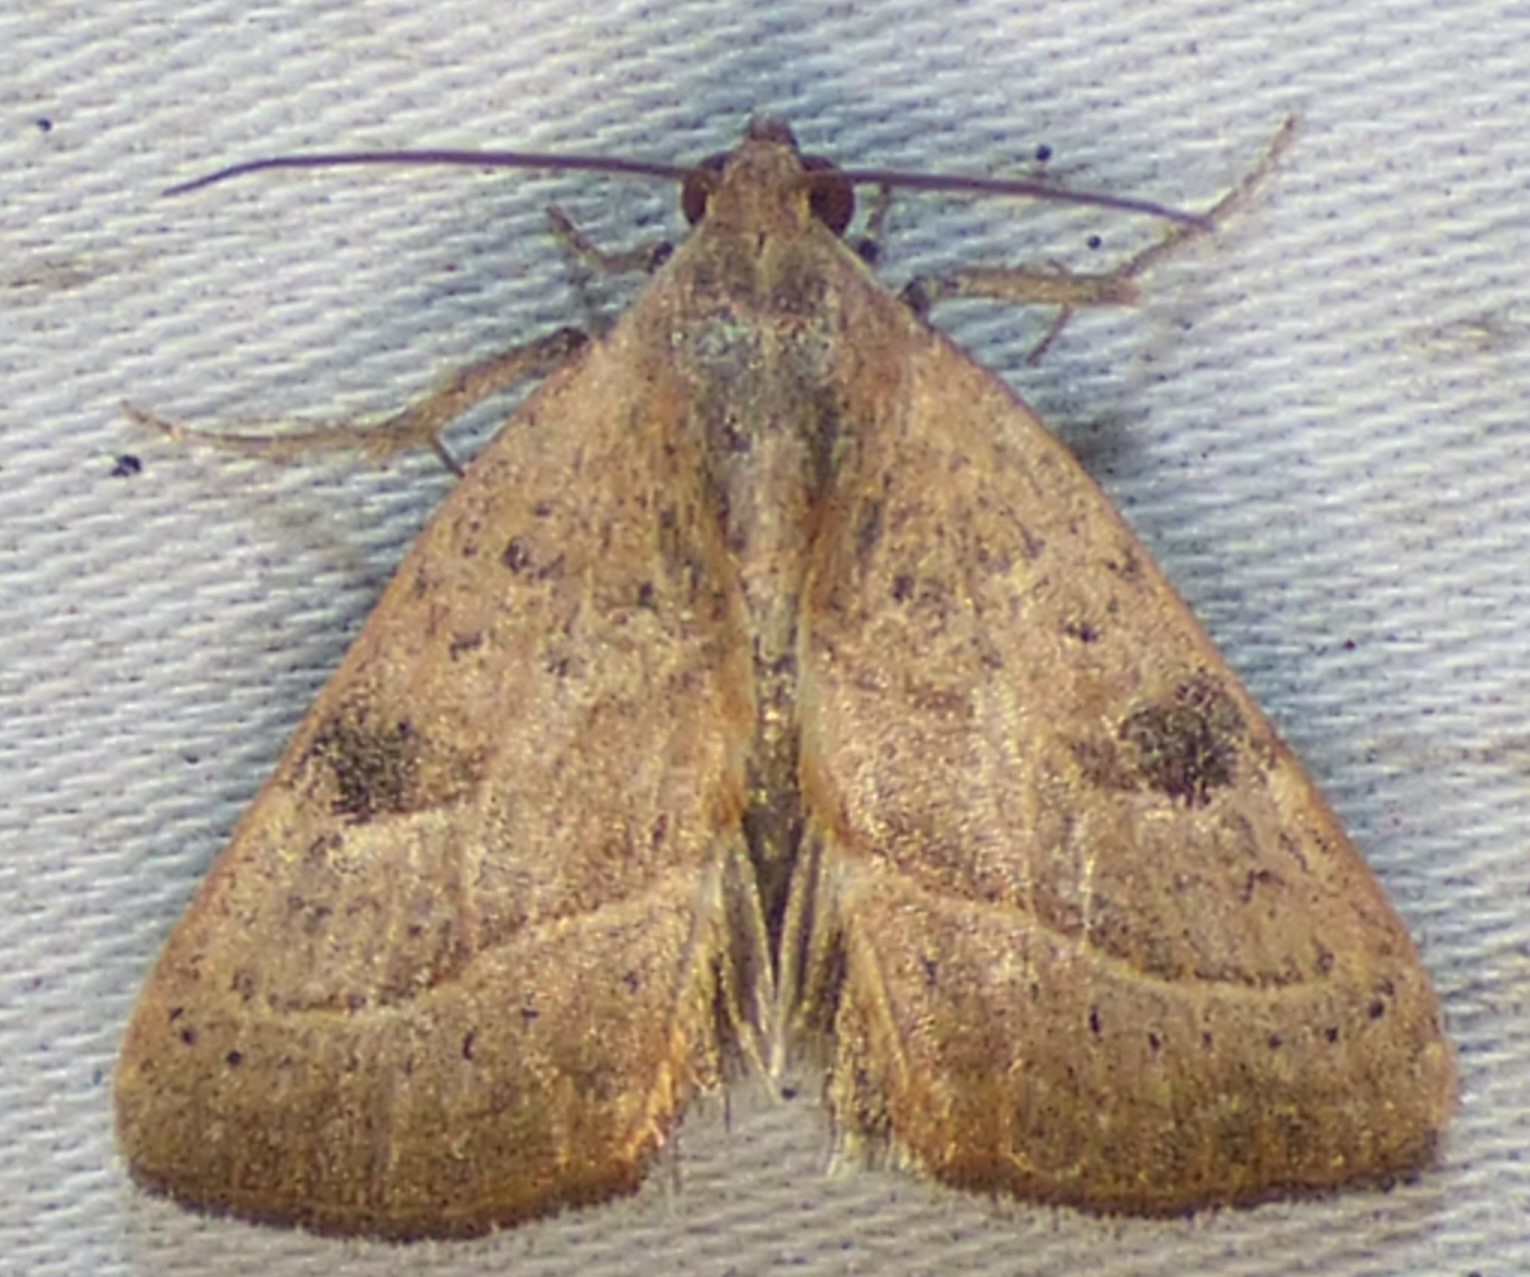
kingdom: Animalia
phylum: Arthropoda
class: Insecta
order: Lepidoptera
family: Noctuidae
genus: Galgula
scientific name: Galgula partita
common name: Wedgeling
